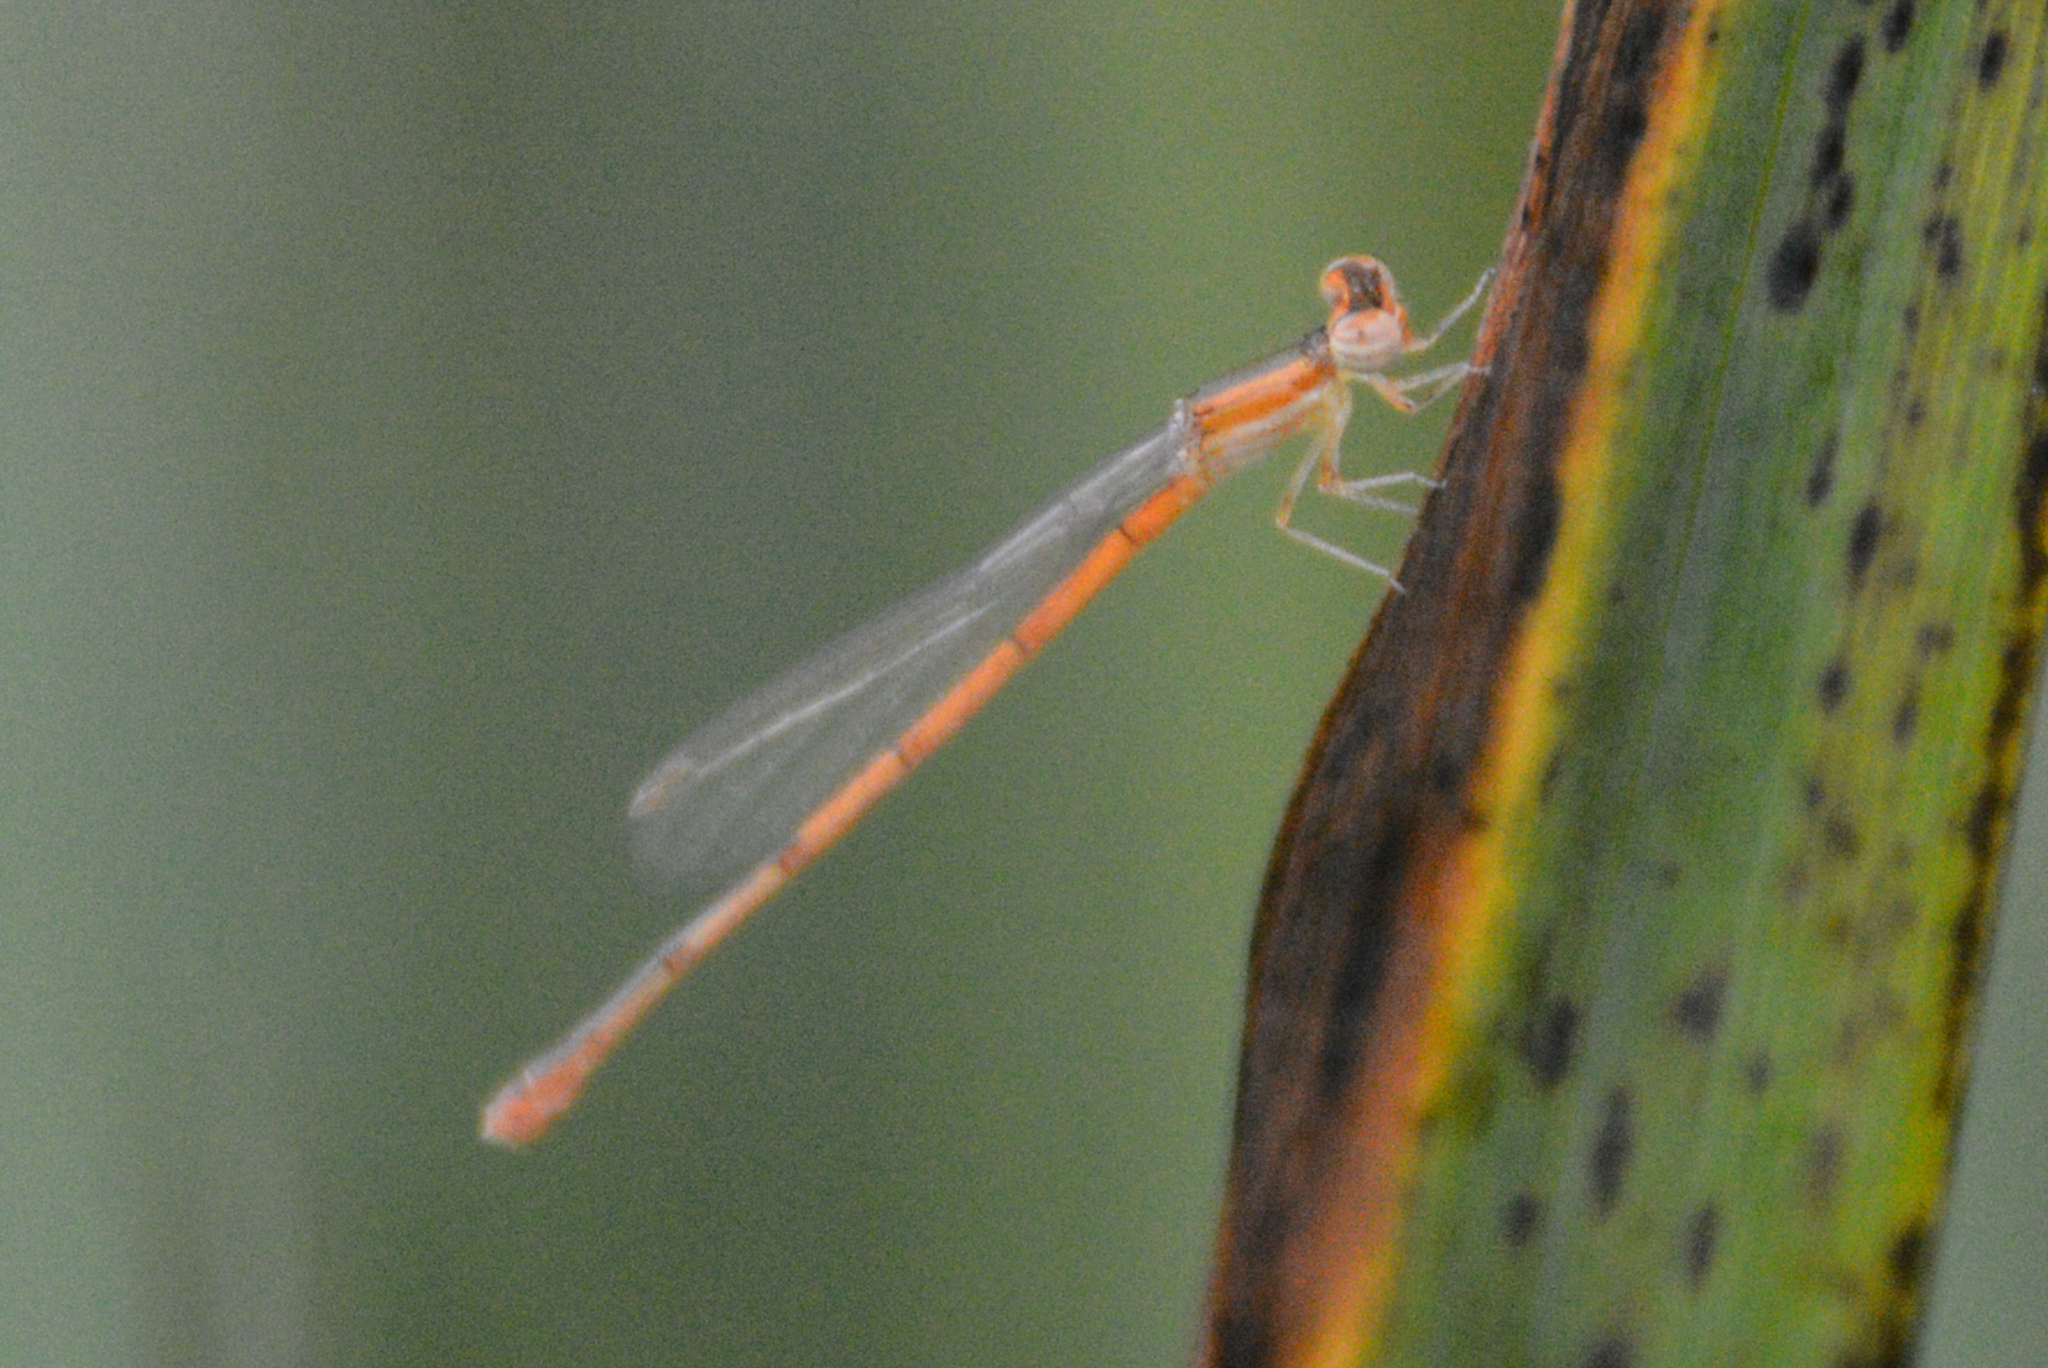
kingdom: Animalia
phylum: Arthropoda
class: Insecta
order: Odonata
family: Coenagrionidae
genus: Ischnura
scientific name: Ischnura hastata
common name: Citrine forktail
